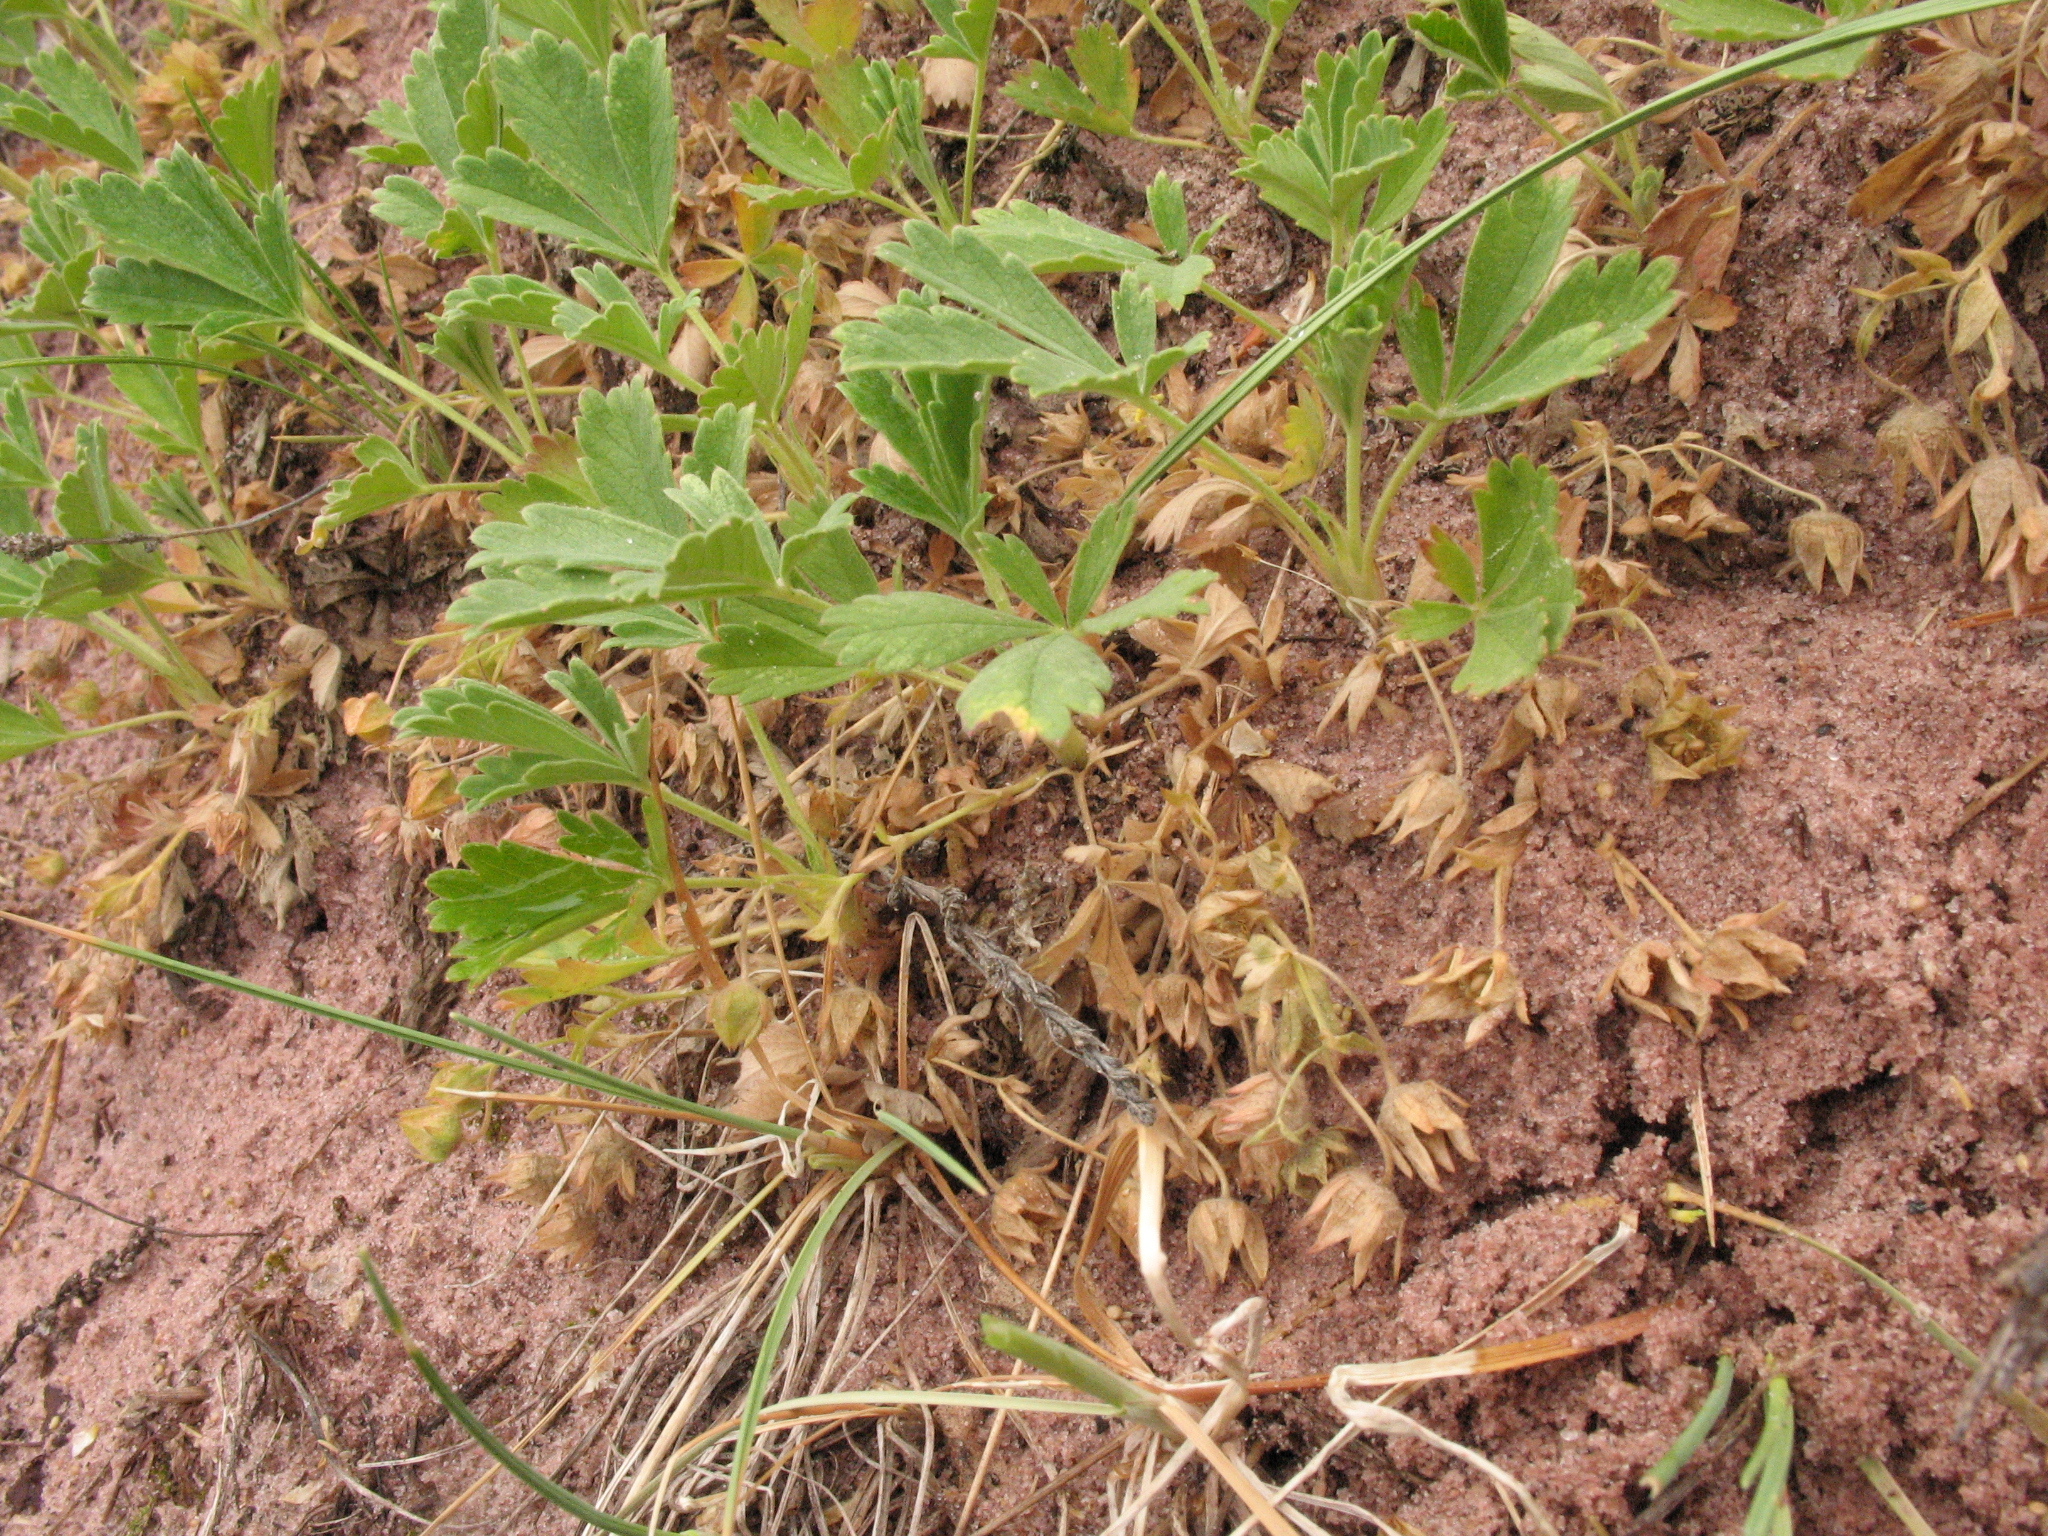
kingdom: Plantae
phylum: Tracheophyta
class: Magnoliopsida
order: Rosales
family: Rosaceae
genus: Potentilla
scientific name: Potentilla incana
